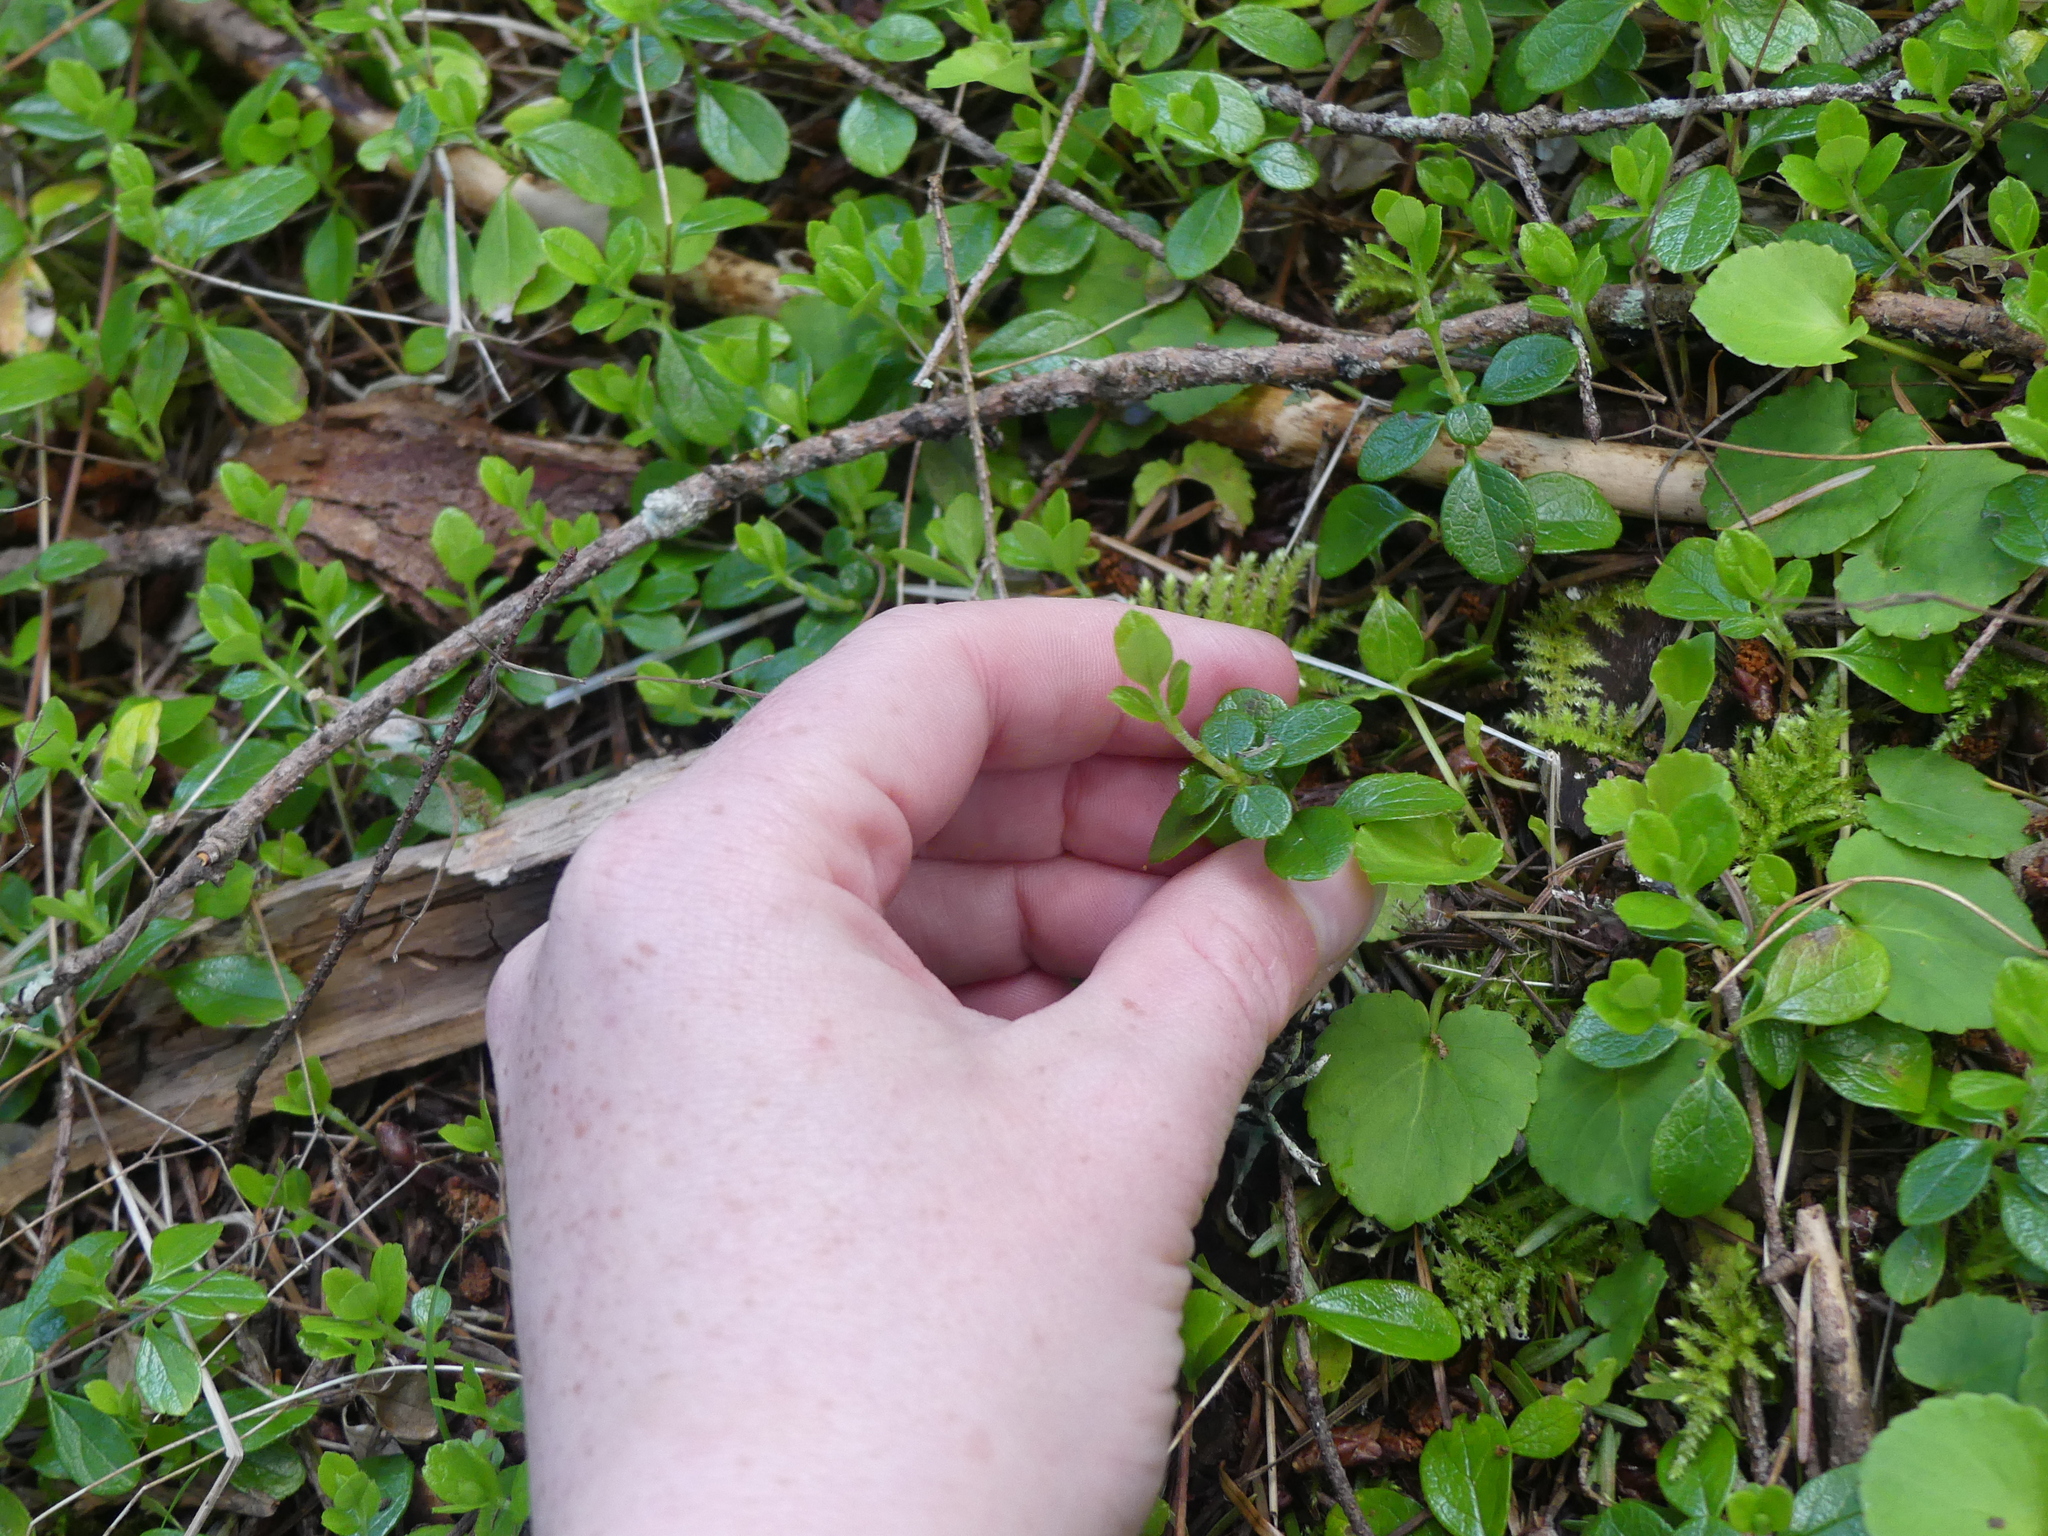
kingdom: Plantae
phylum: Tracheophyta
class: Magnoliopsida
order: Dipsacales
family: Caprifoliaceae
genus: Linnaea
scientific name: Linnaea borealis
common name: Twinflower
